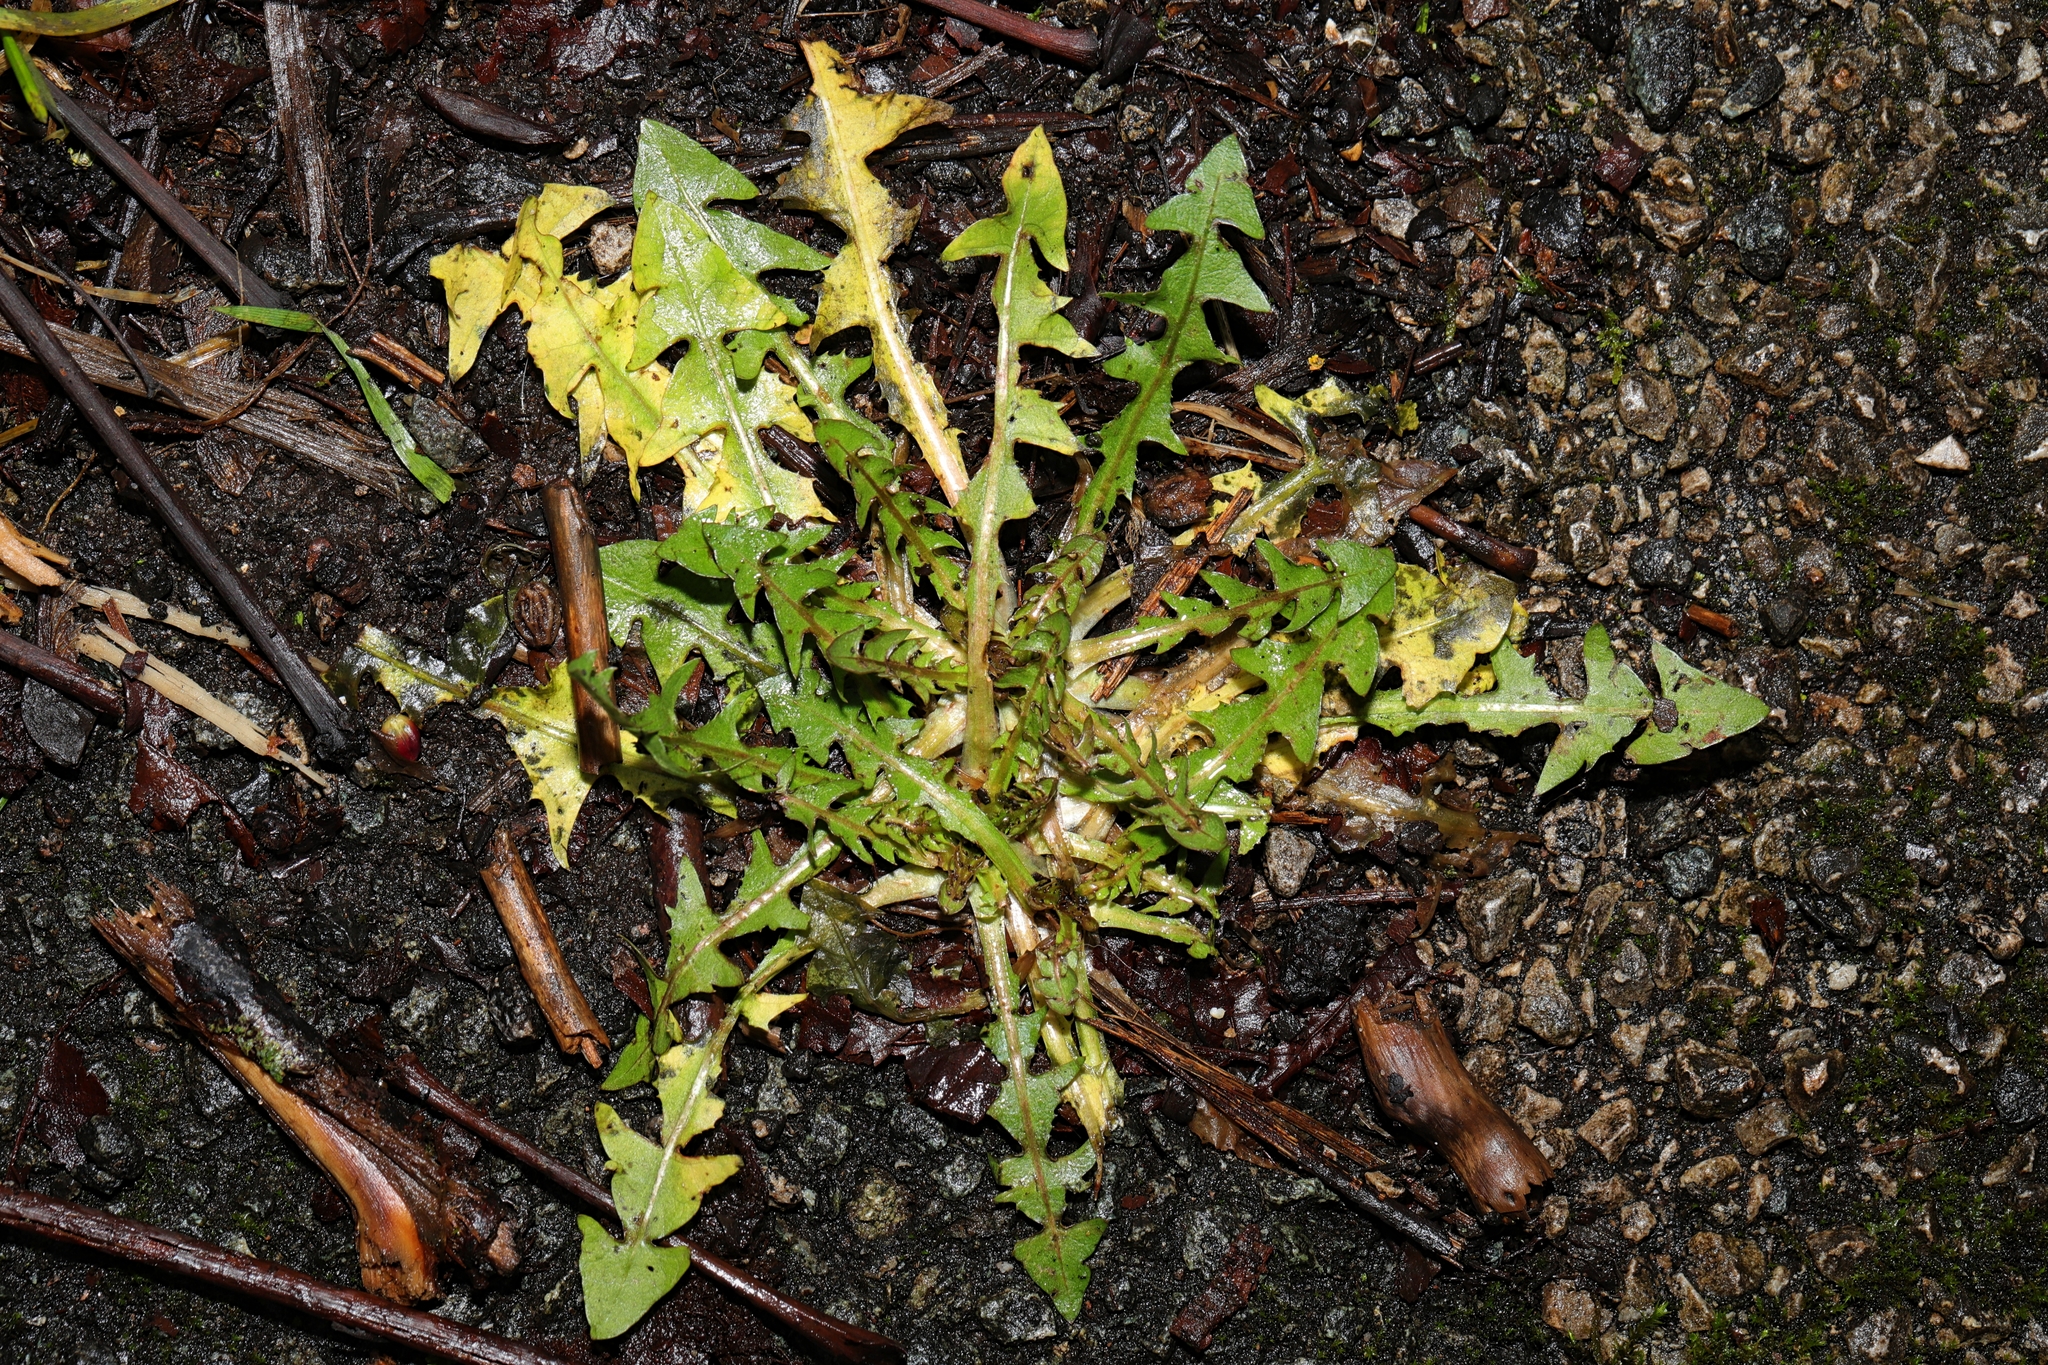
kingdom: Plantae
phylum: Tracheophyta
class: Magnoliopsida
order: Asterales
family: Asteraceae
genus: Taraxacum
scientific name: Taraxacum officinale
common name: Common dandelion
